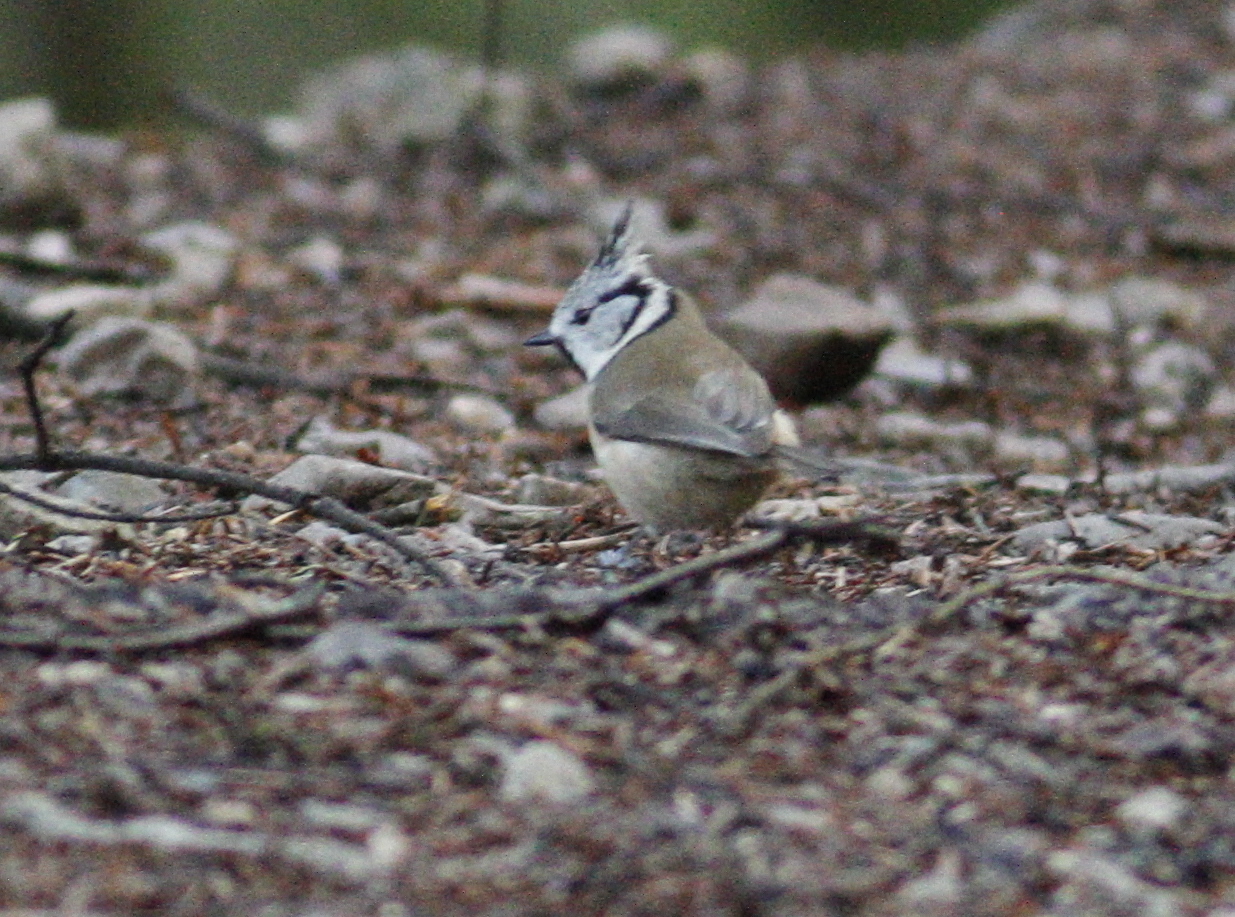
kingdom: Animalia
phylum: Chordata
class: Aves
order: Passeriformes
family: Paridae
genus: Lophophanes
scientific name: Lophophanes cristatus
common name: European crested tit
